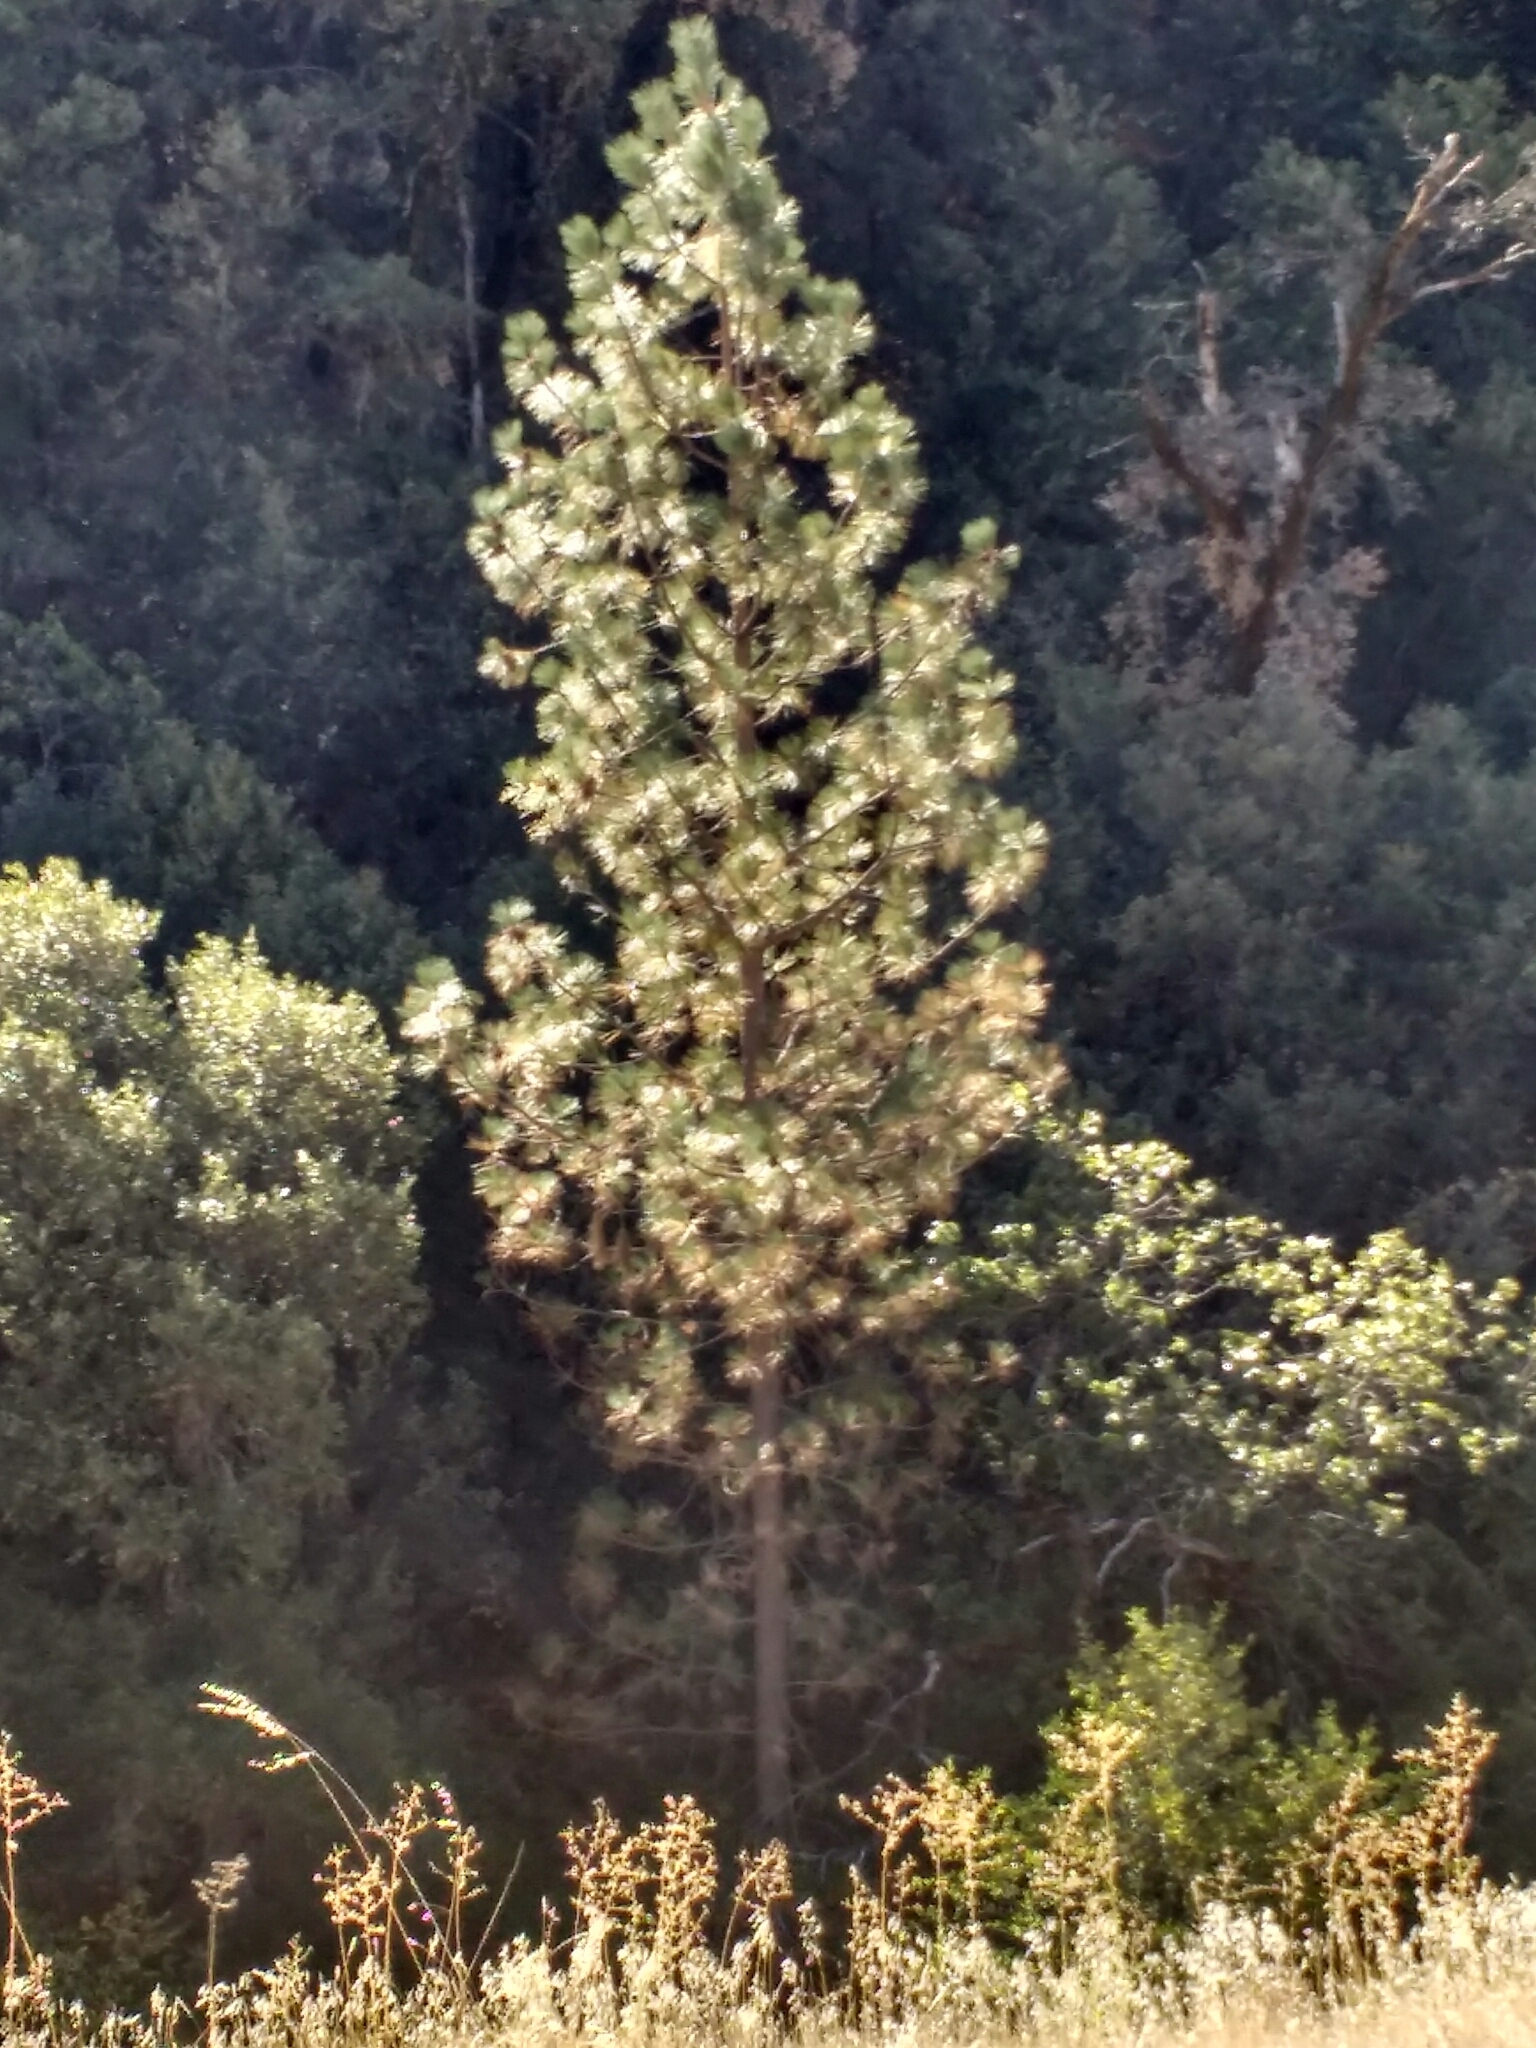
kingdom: Plantae
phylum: Tracheophyta
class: Pinopsida
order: Pinales
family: Pinaceae
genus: Pinus
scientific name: Pinus ponderosa
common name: Western yellow-pine
